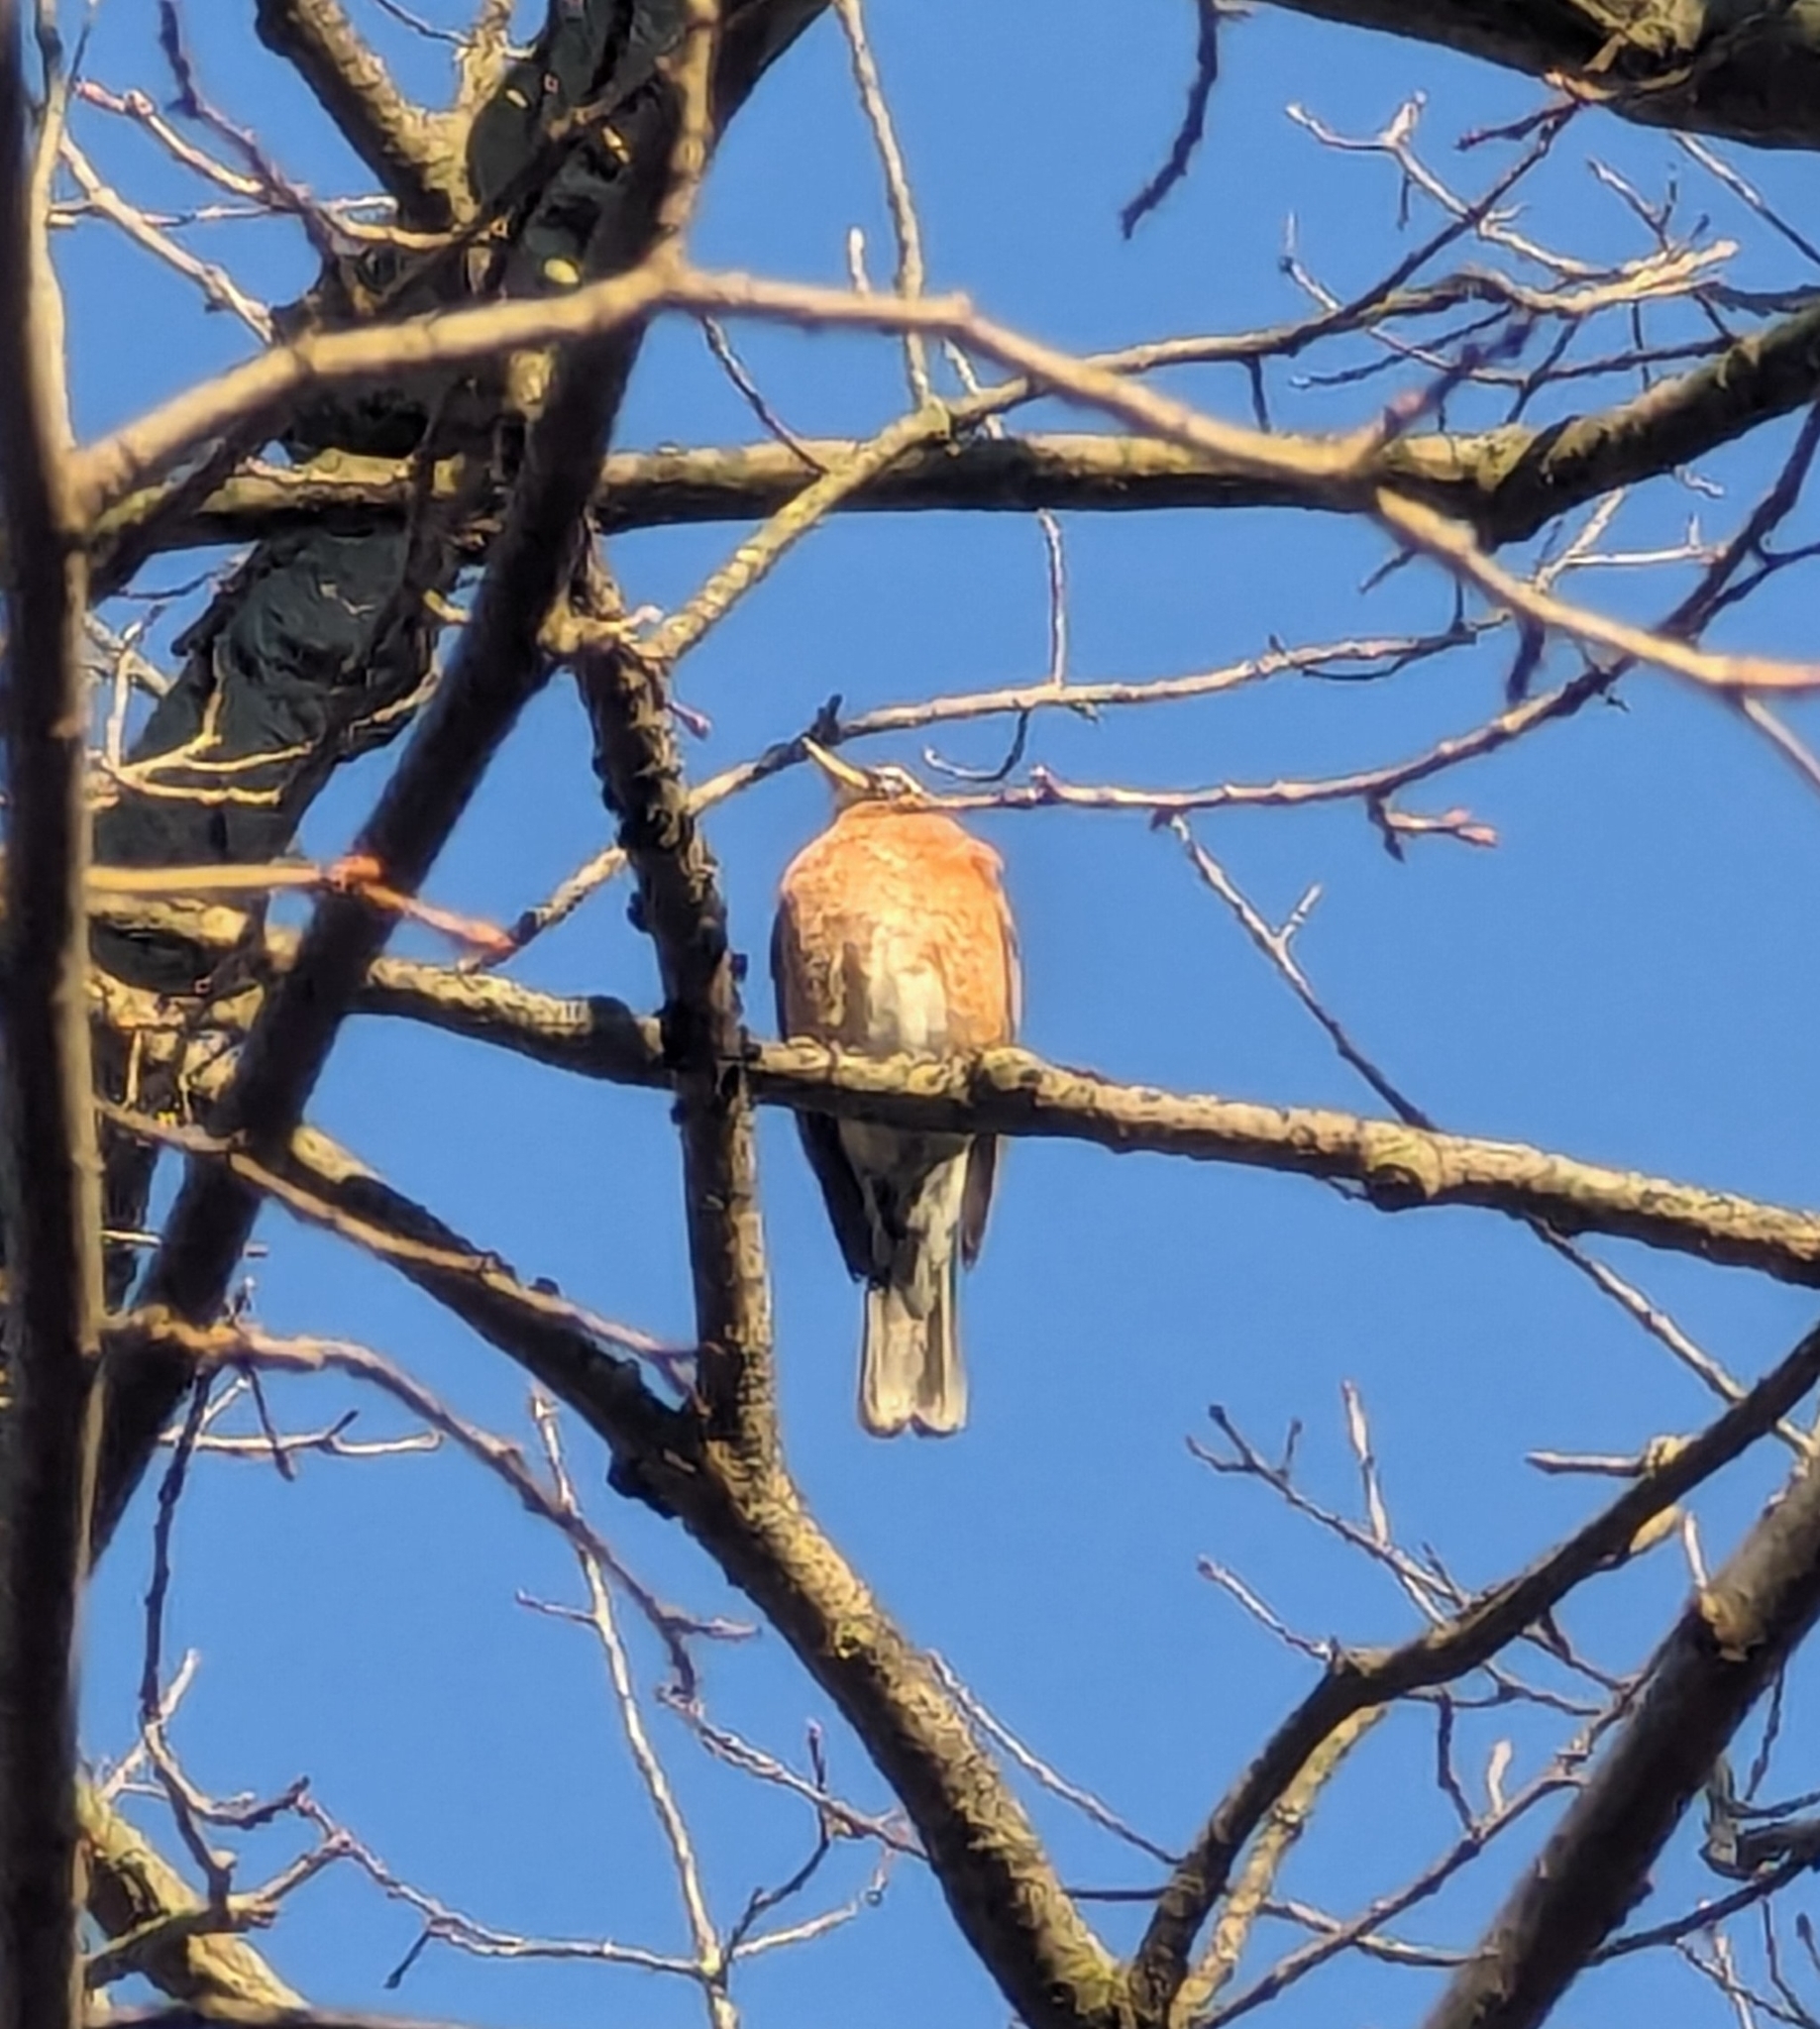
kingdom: Animalia
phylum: Chordata
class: Aves
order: Passeriformes
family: Turdidae
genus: Turdus
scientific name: Turdus migratorius
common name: American robin
